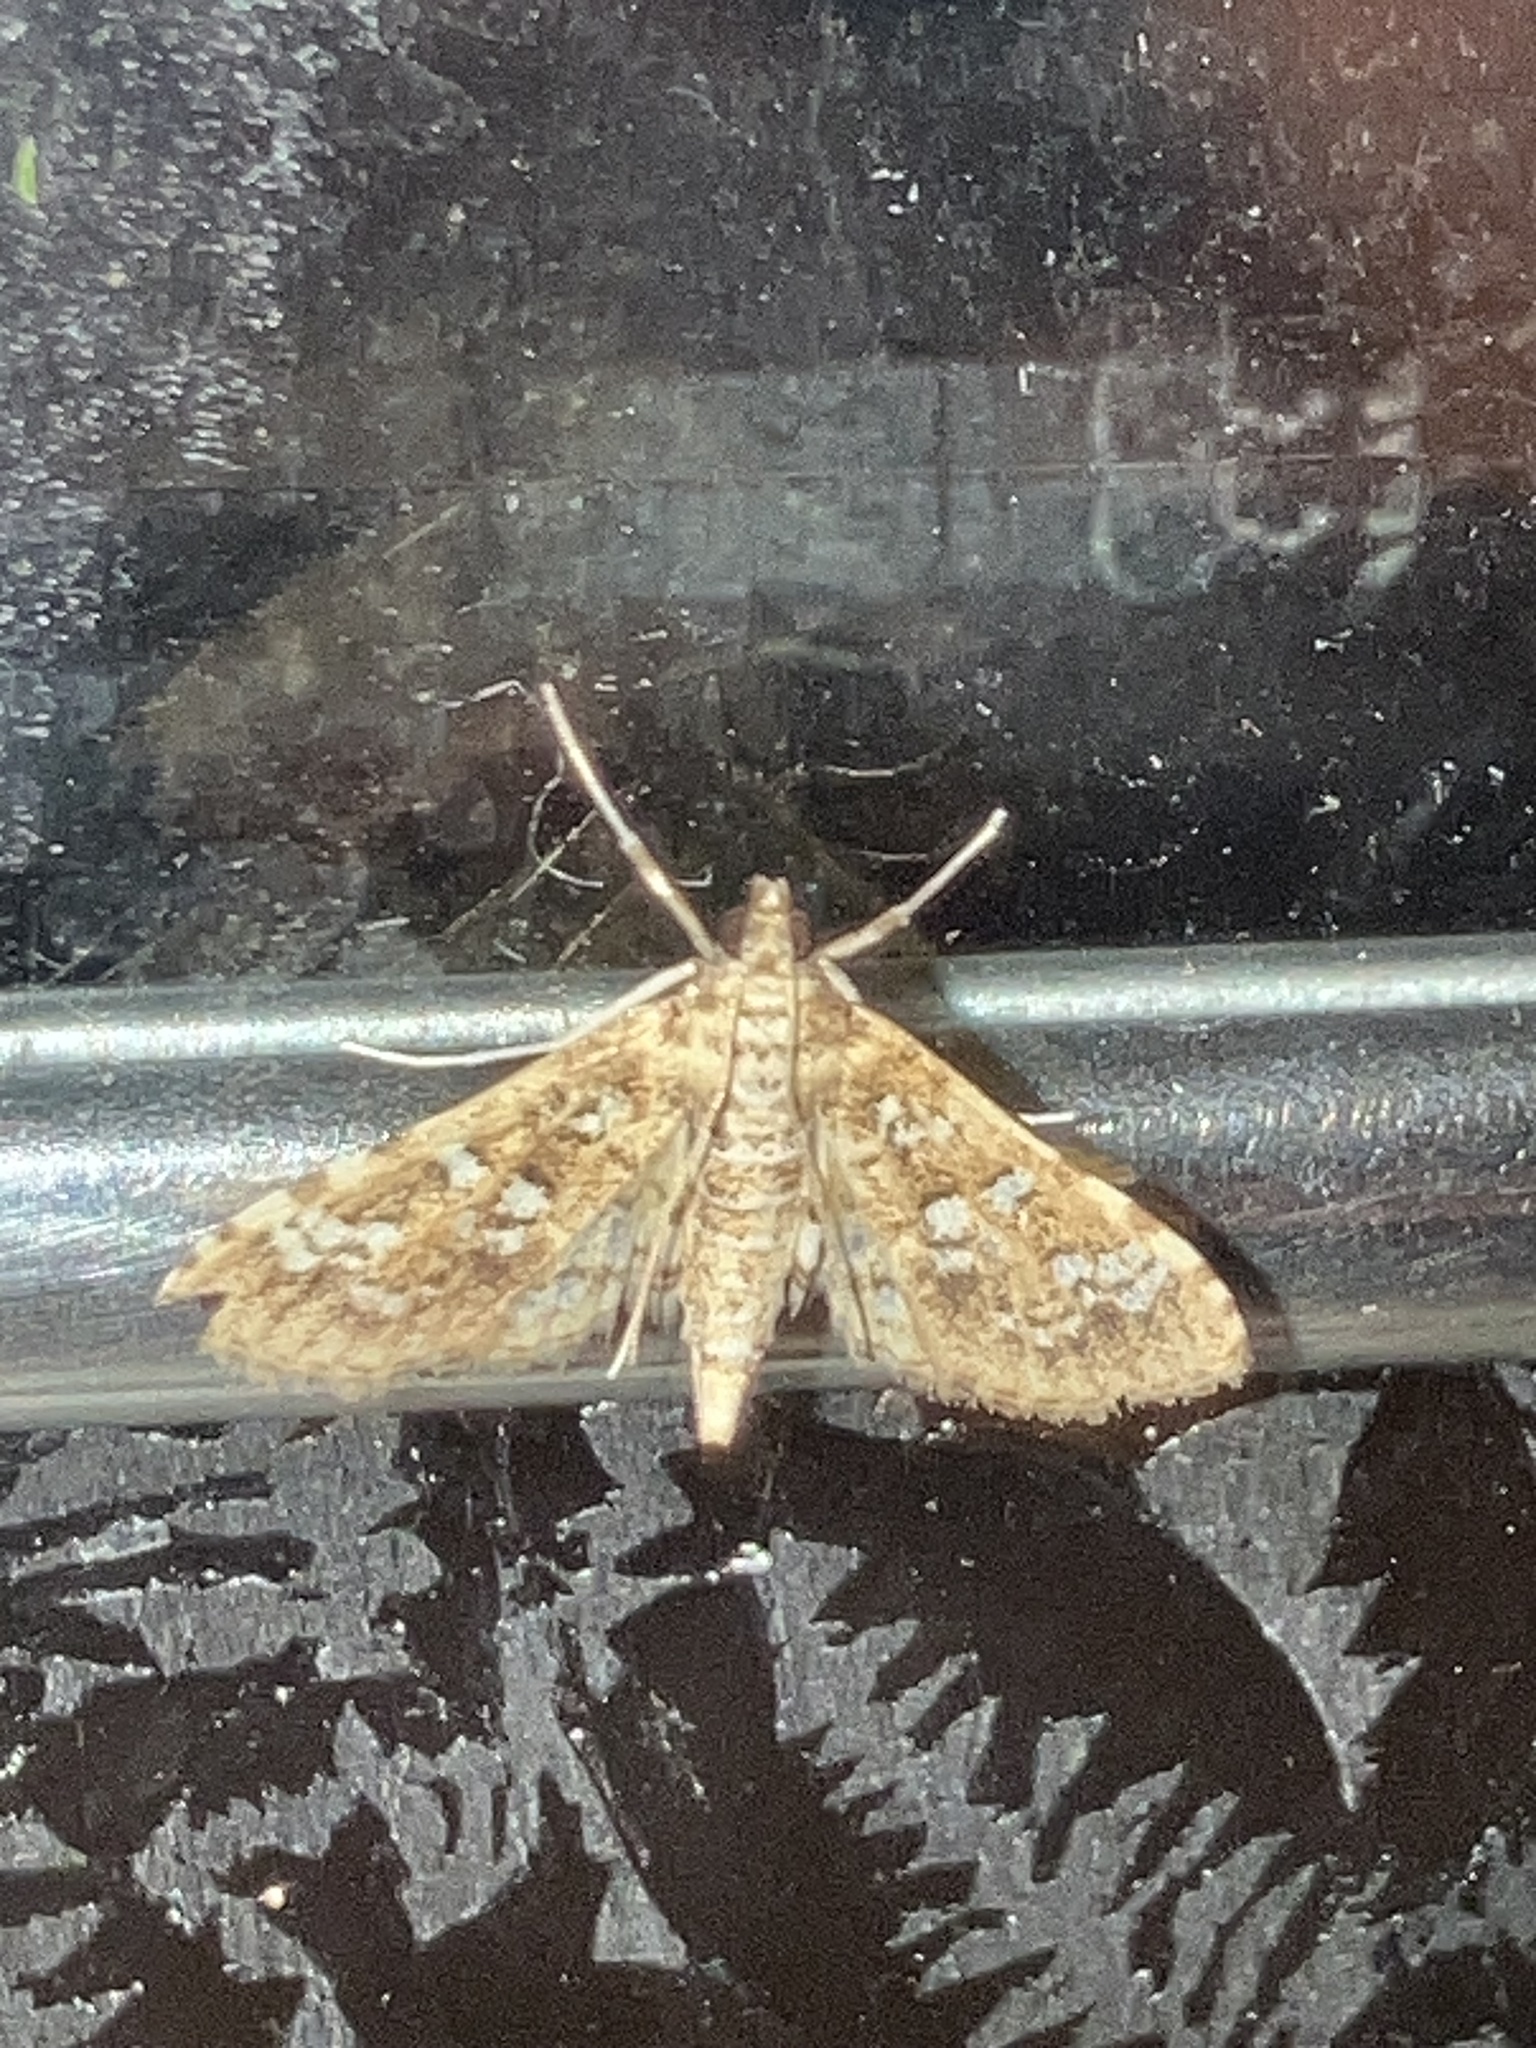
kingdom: Animalia
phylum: Arthropoda
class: Insecta
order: Lepidoptera
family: Crambidae
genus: Samea
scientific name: Samea multiplicalis
